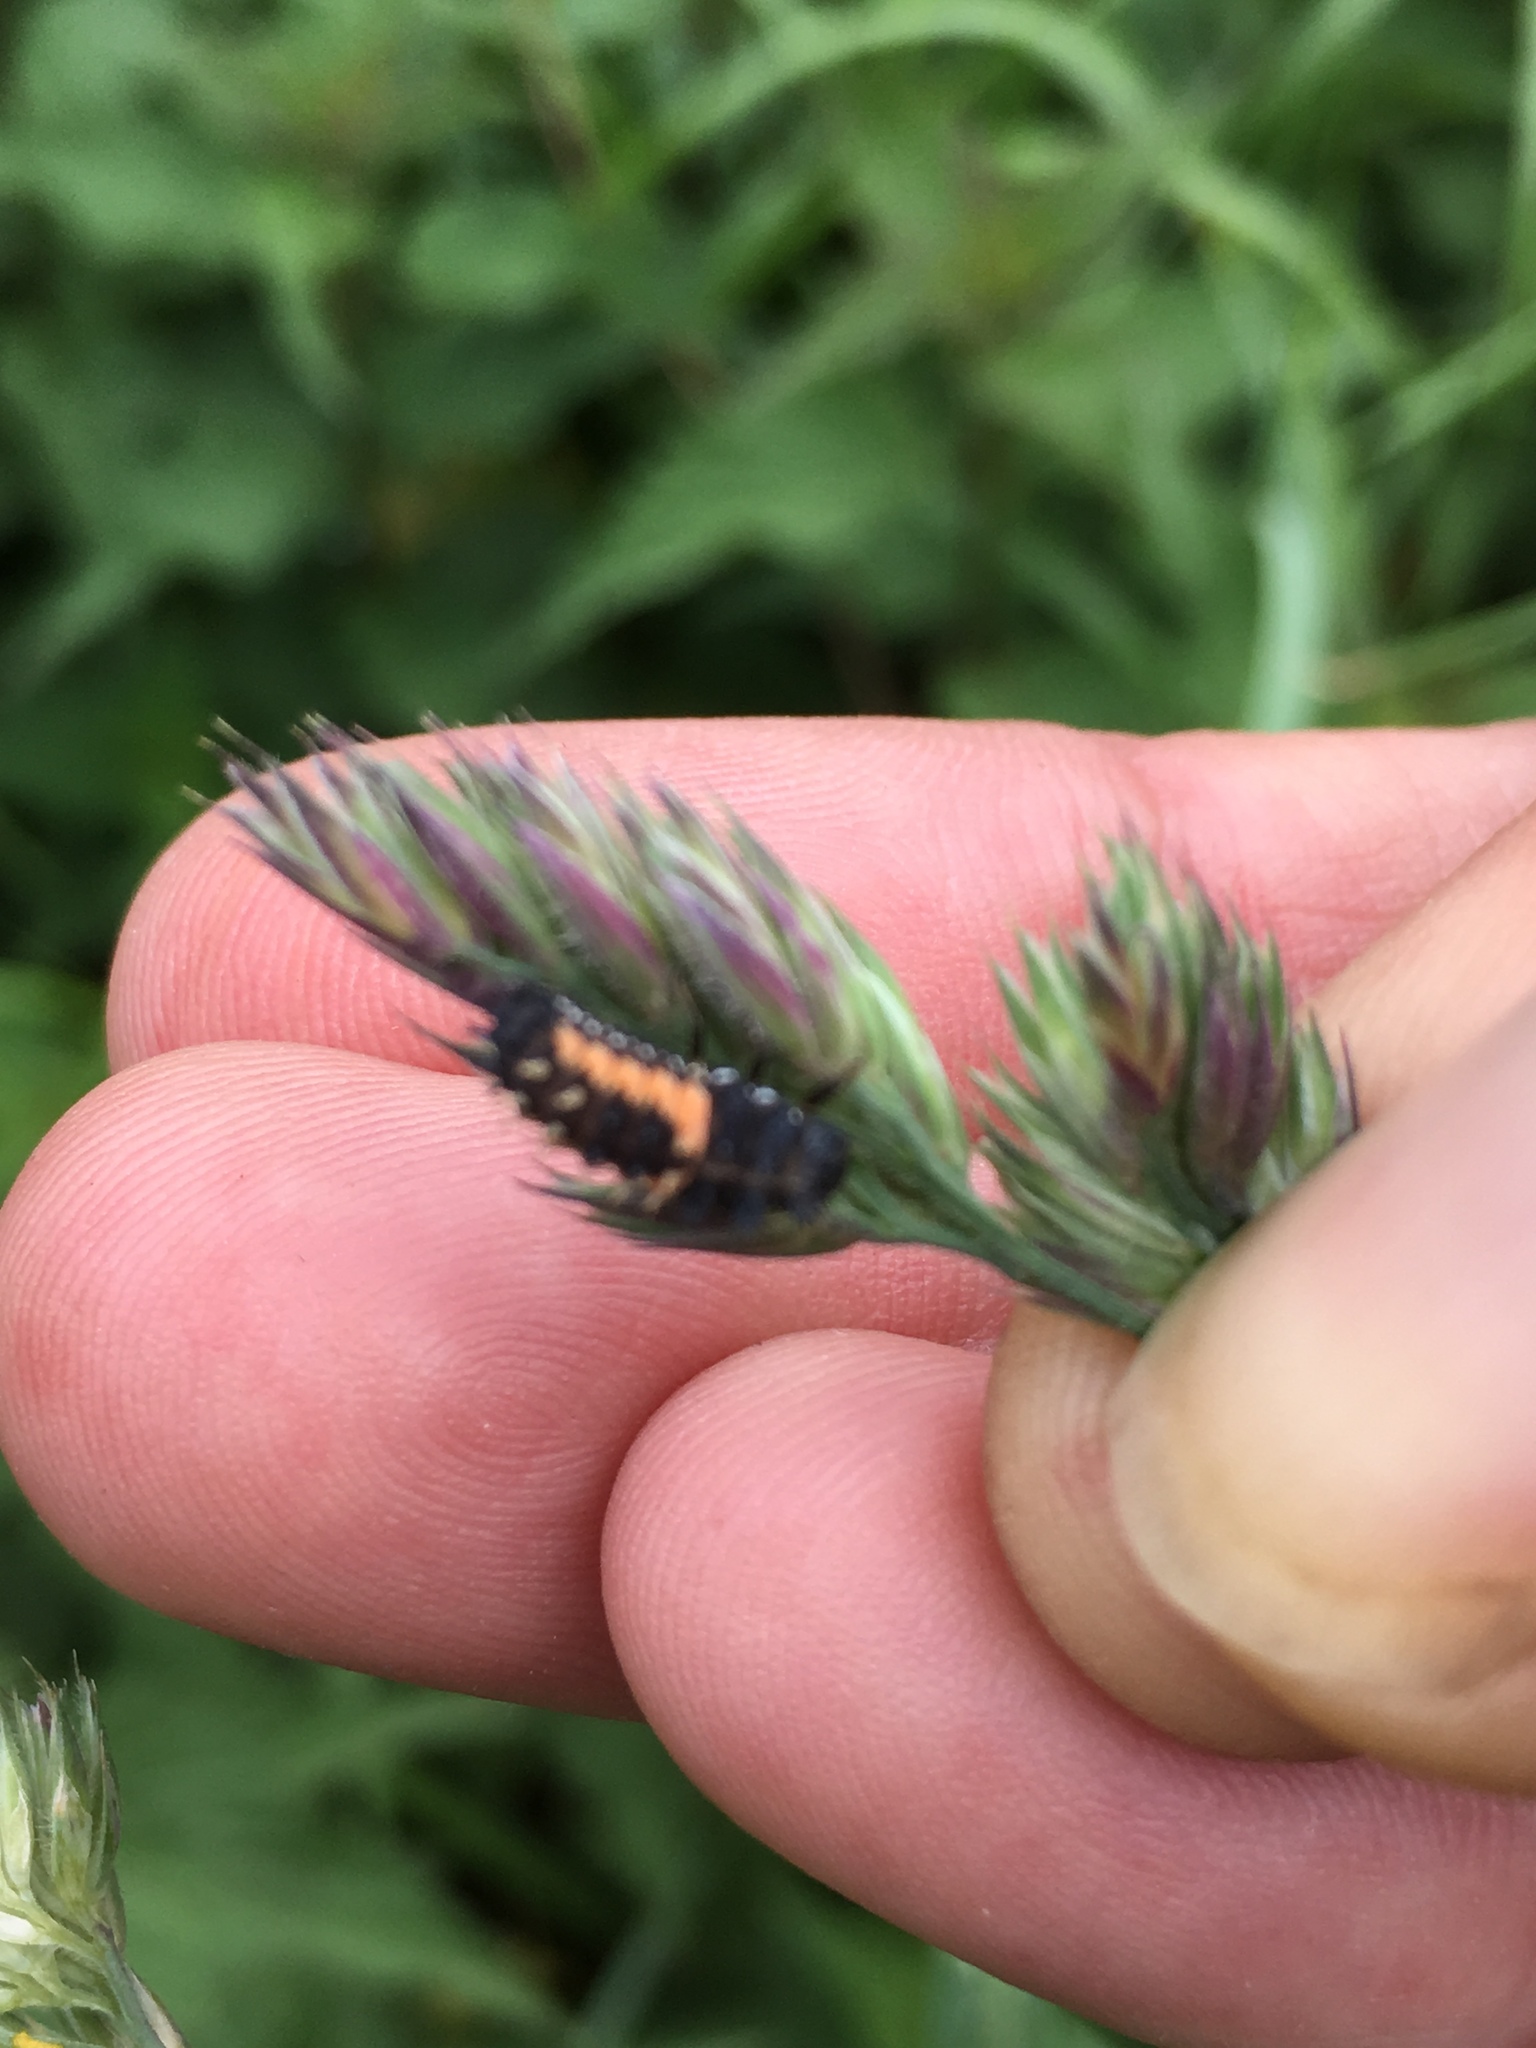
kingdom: Animalia
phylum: Arthropoda
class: Insecta
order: Coleoptera
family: Coccinellidae
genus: Harmonia
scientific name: Harmonia axyridis
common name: Harlequin ladybird
